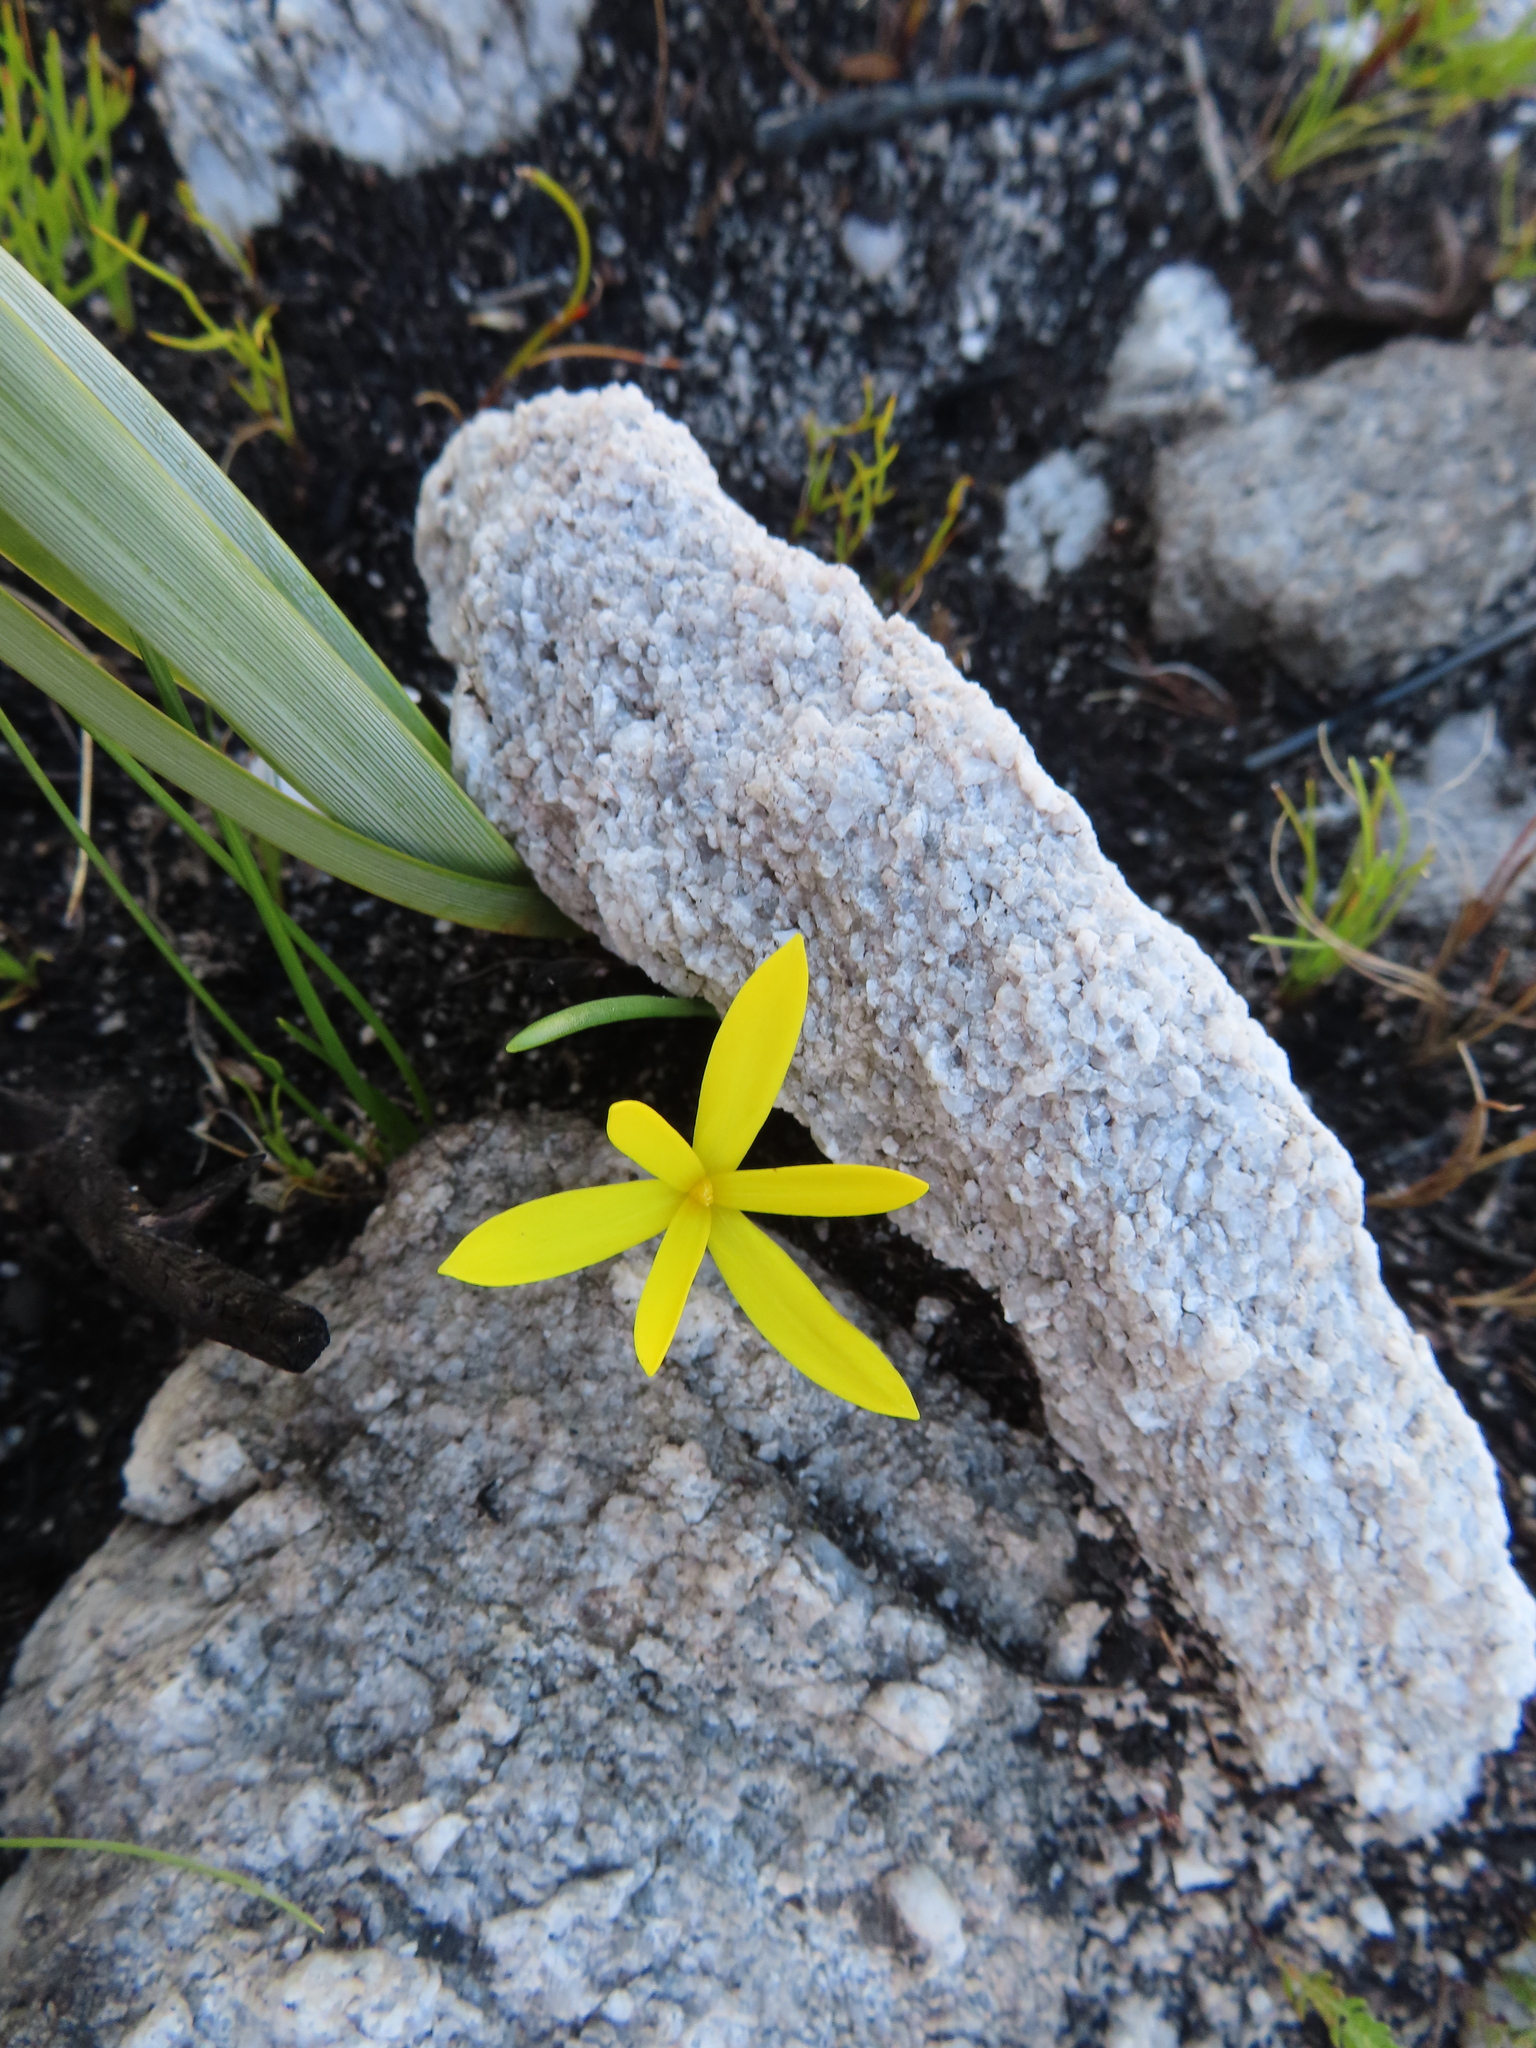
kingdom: Plantae
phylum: Tracheophyta
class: Liliopsida
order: Asparagales
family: Hypoxidaceae
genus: Pauridia
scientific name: Pauridia monophylla
